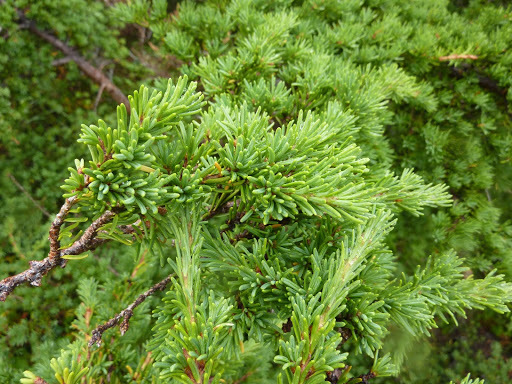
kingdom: Plantae
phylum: Tracheophyta
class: Pinopsida
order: Pinales
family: Pinaceae
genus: Tsuga
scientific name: Tsuga mertensiana
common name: Mountain hemlock
